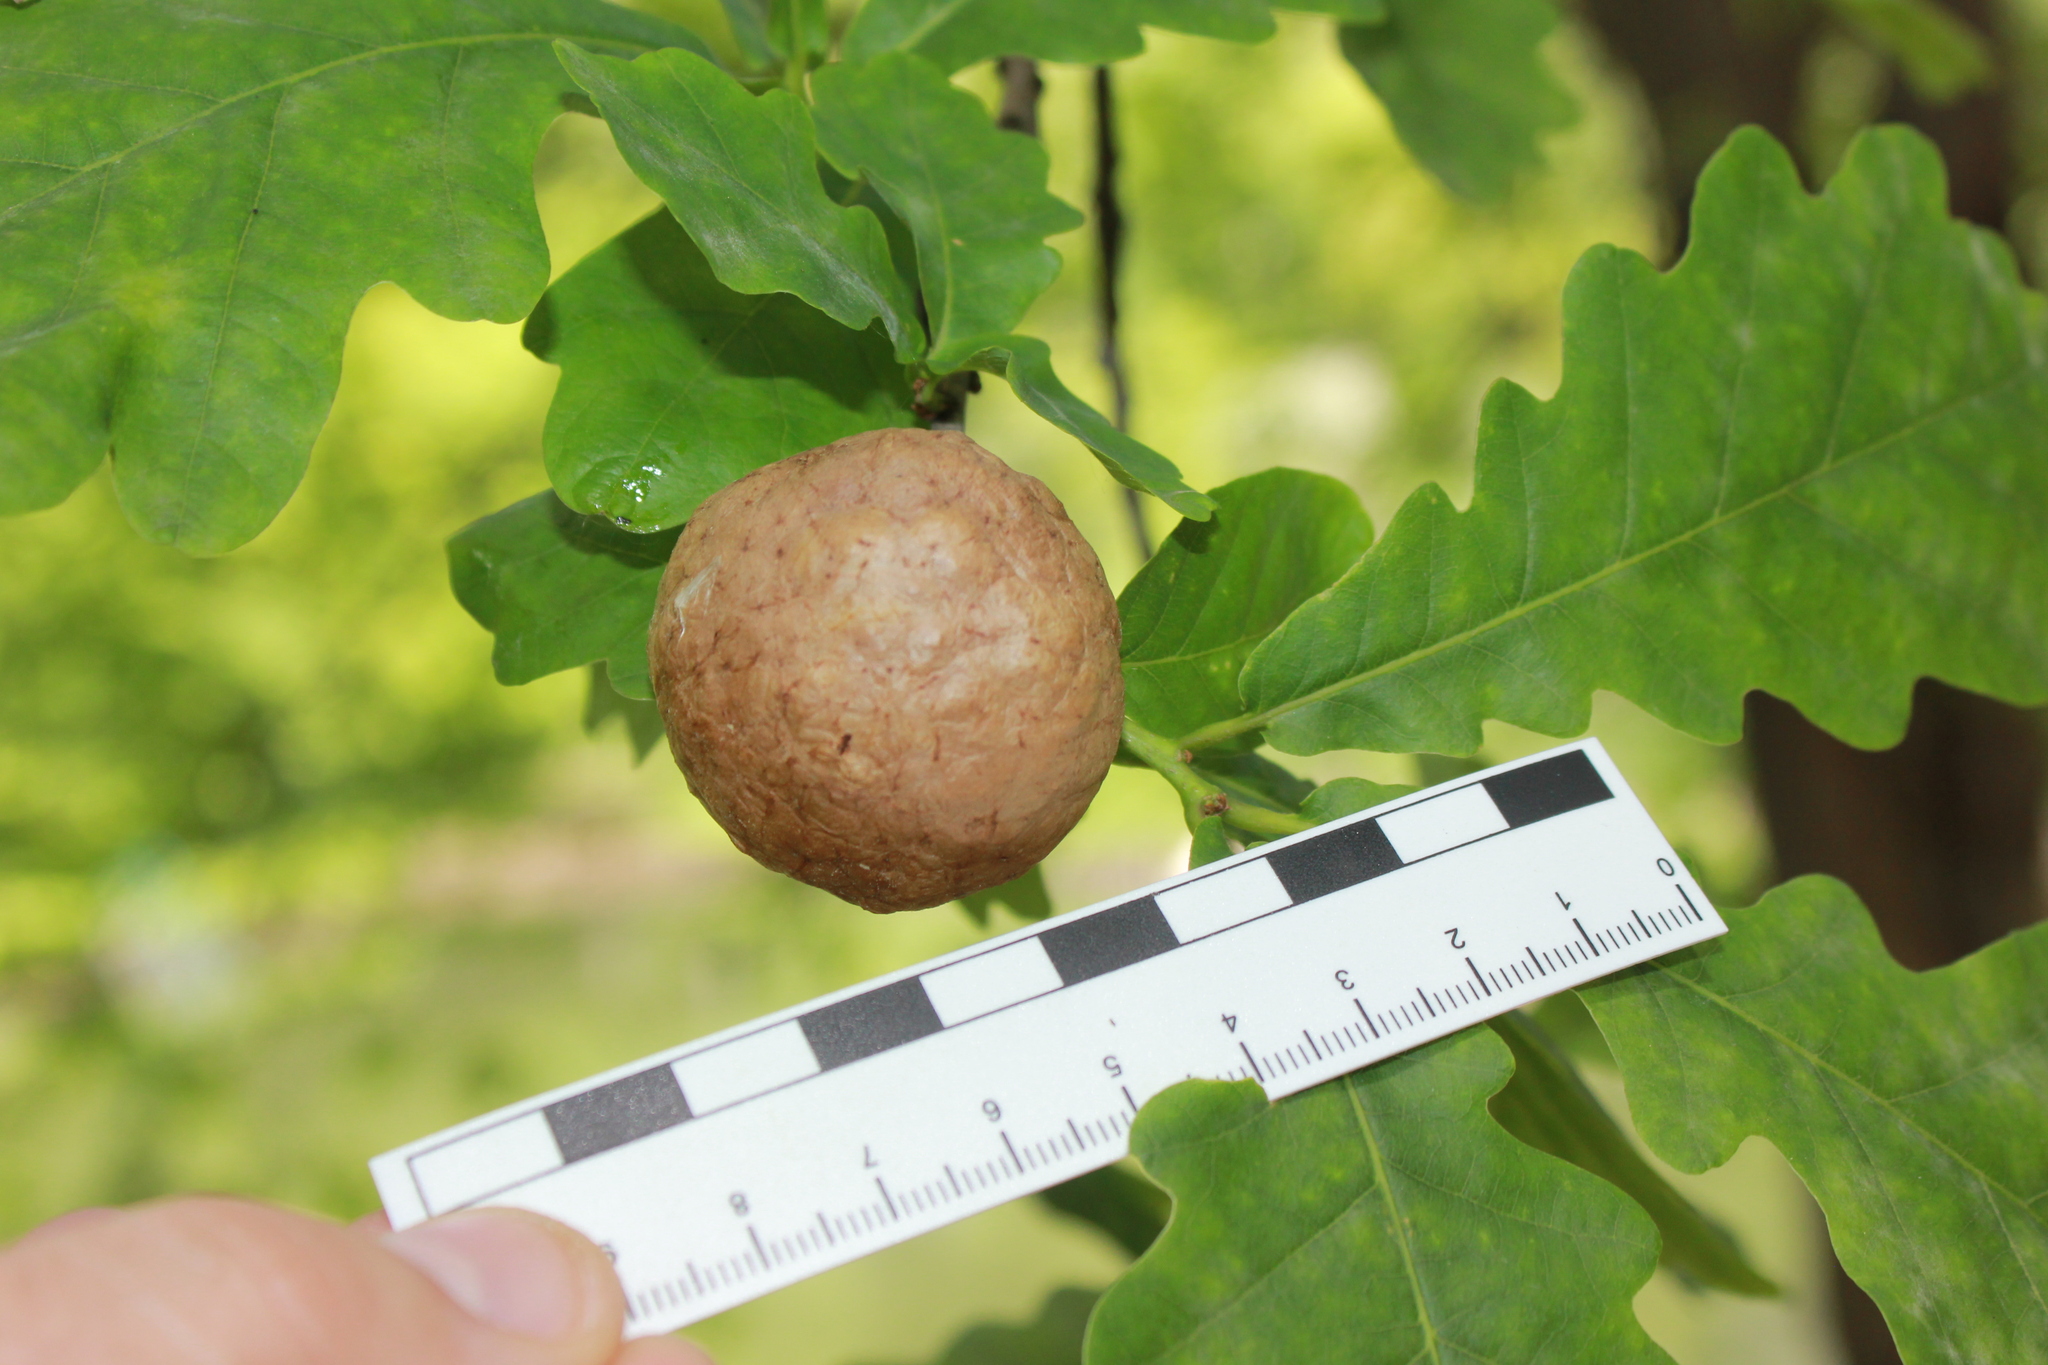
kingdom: Animalia
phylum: Arthropoda
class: Insecta
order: Hymenoptera
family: Cynipidae
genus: Biorhiza
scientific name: Biorhiza pallida
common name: Oak apple
